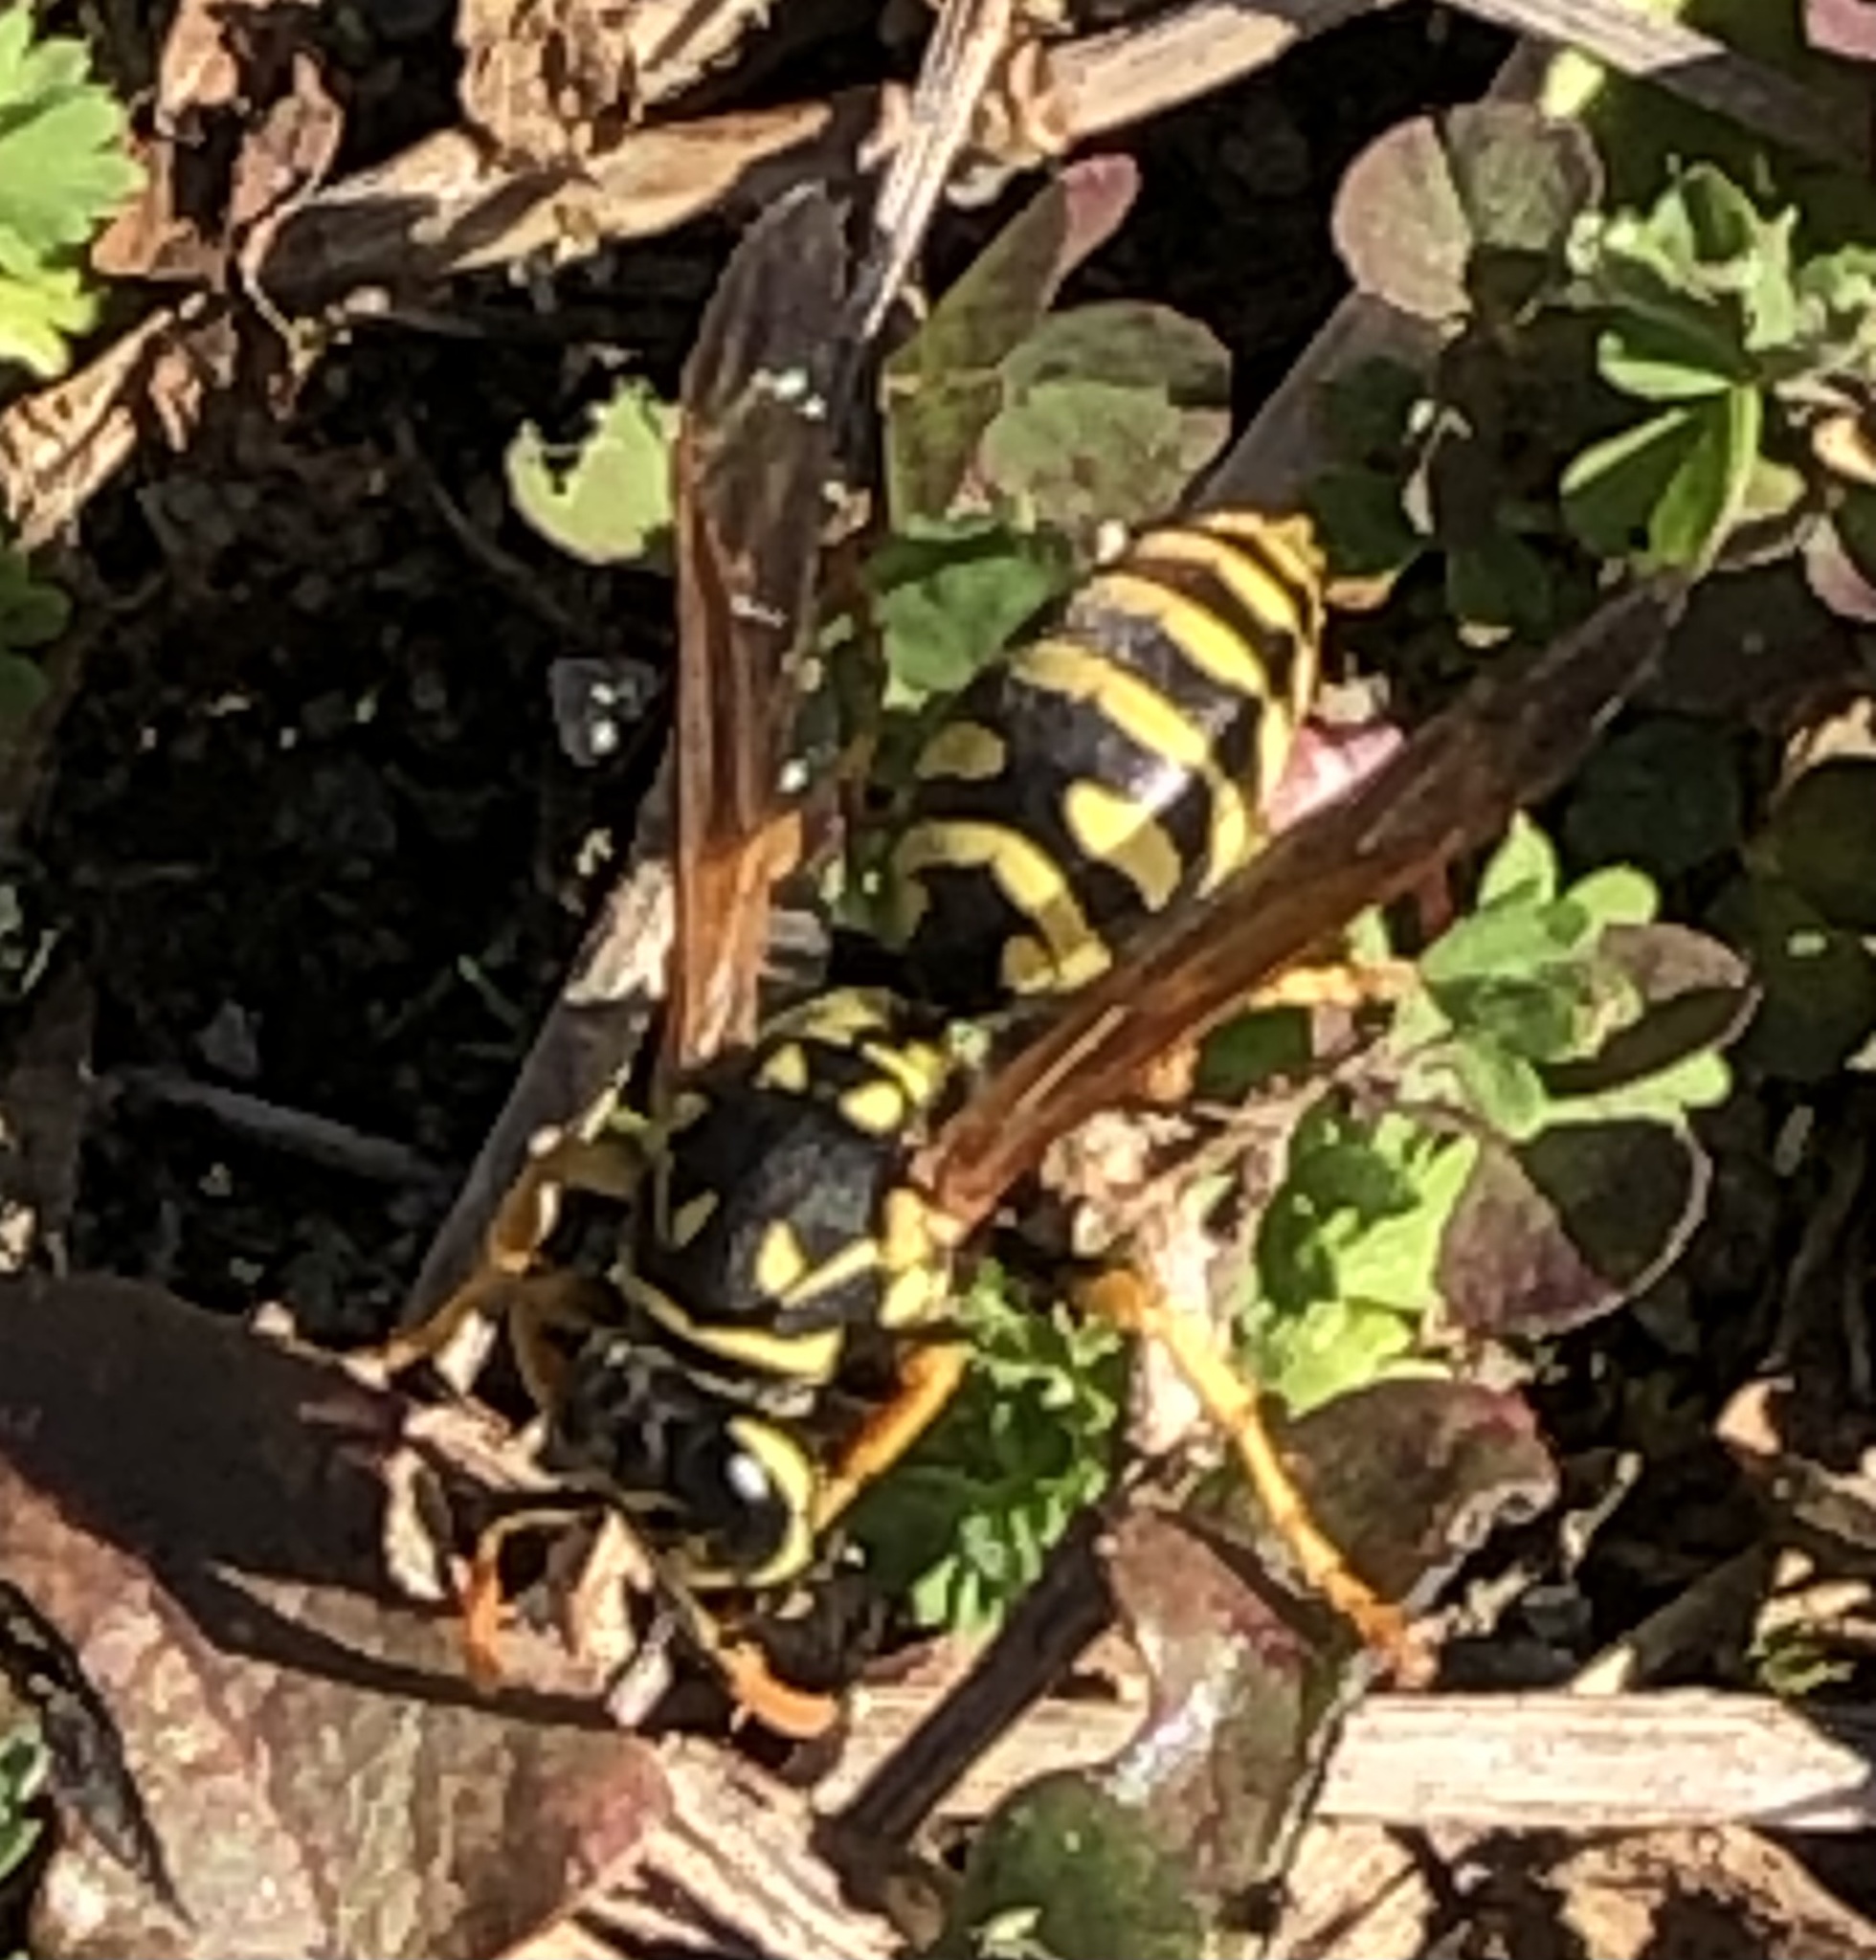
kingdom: Animalia
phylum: Arthropoda
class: Insecta
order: Hymenoptera
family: Eumenidae
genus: Polistes
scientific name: Polistes dominula
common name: Paper wasp
